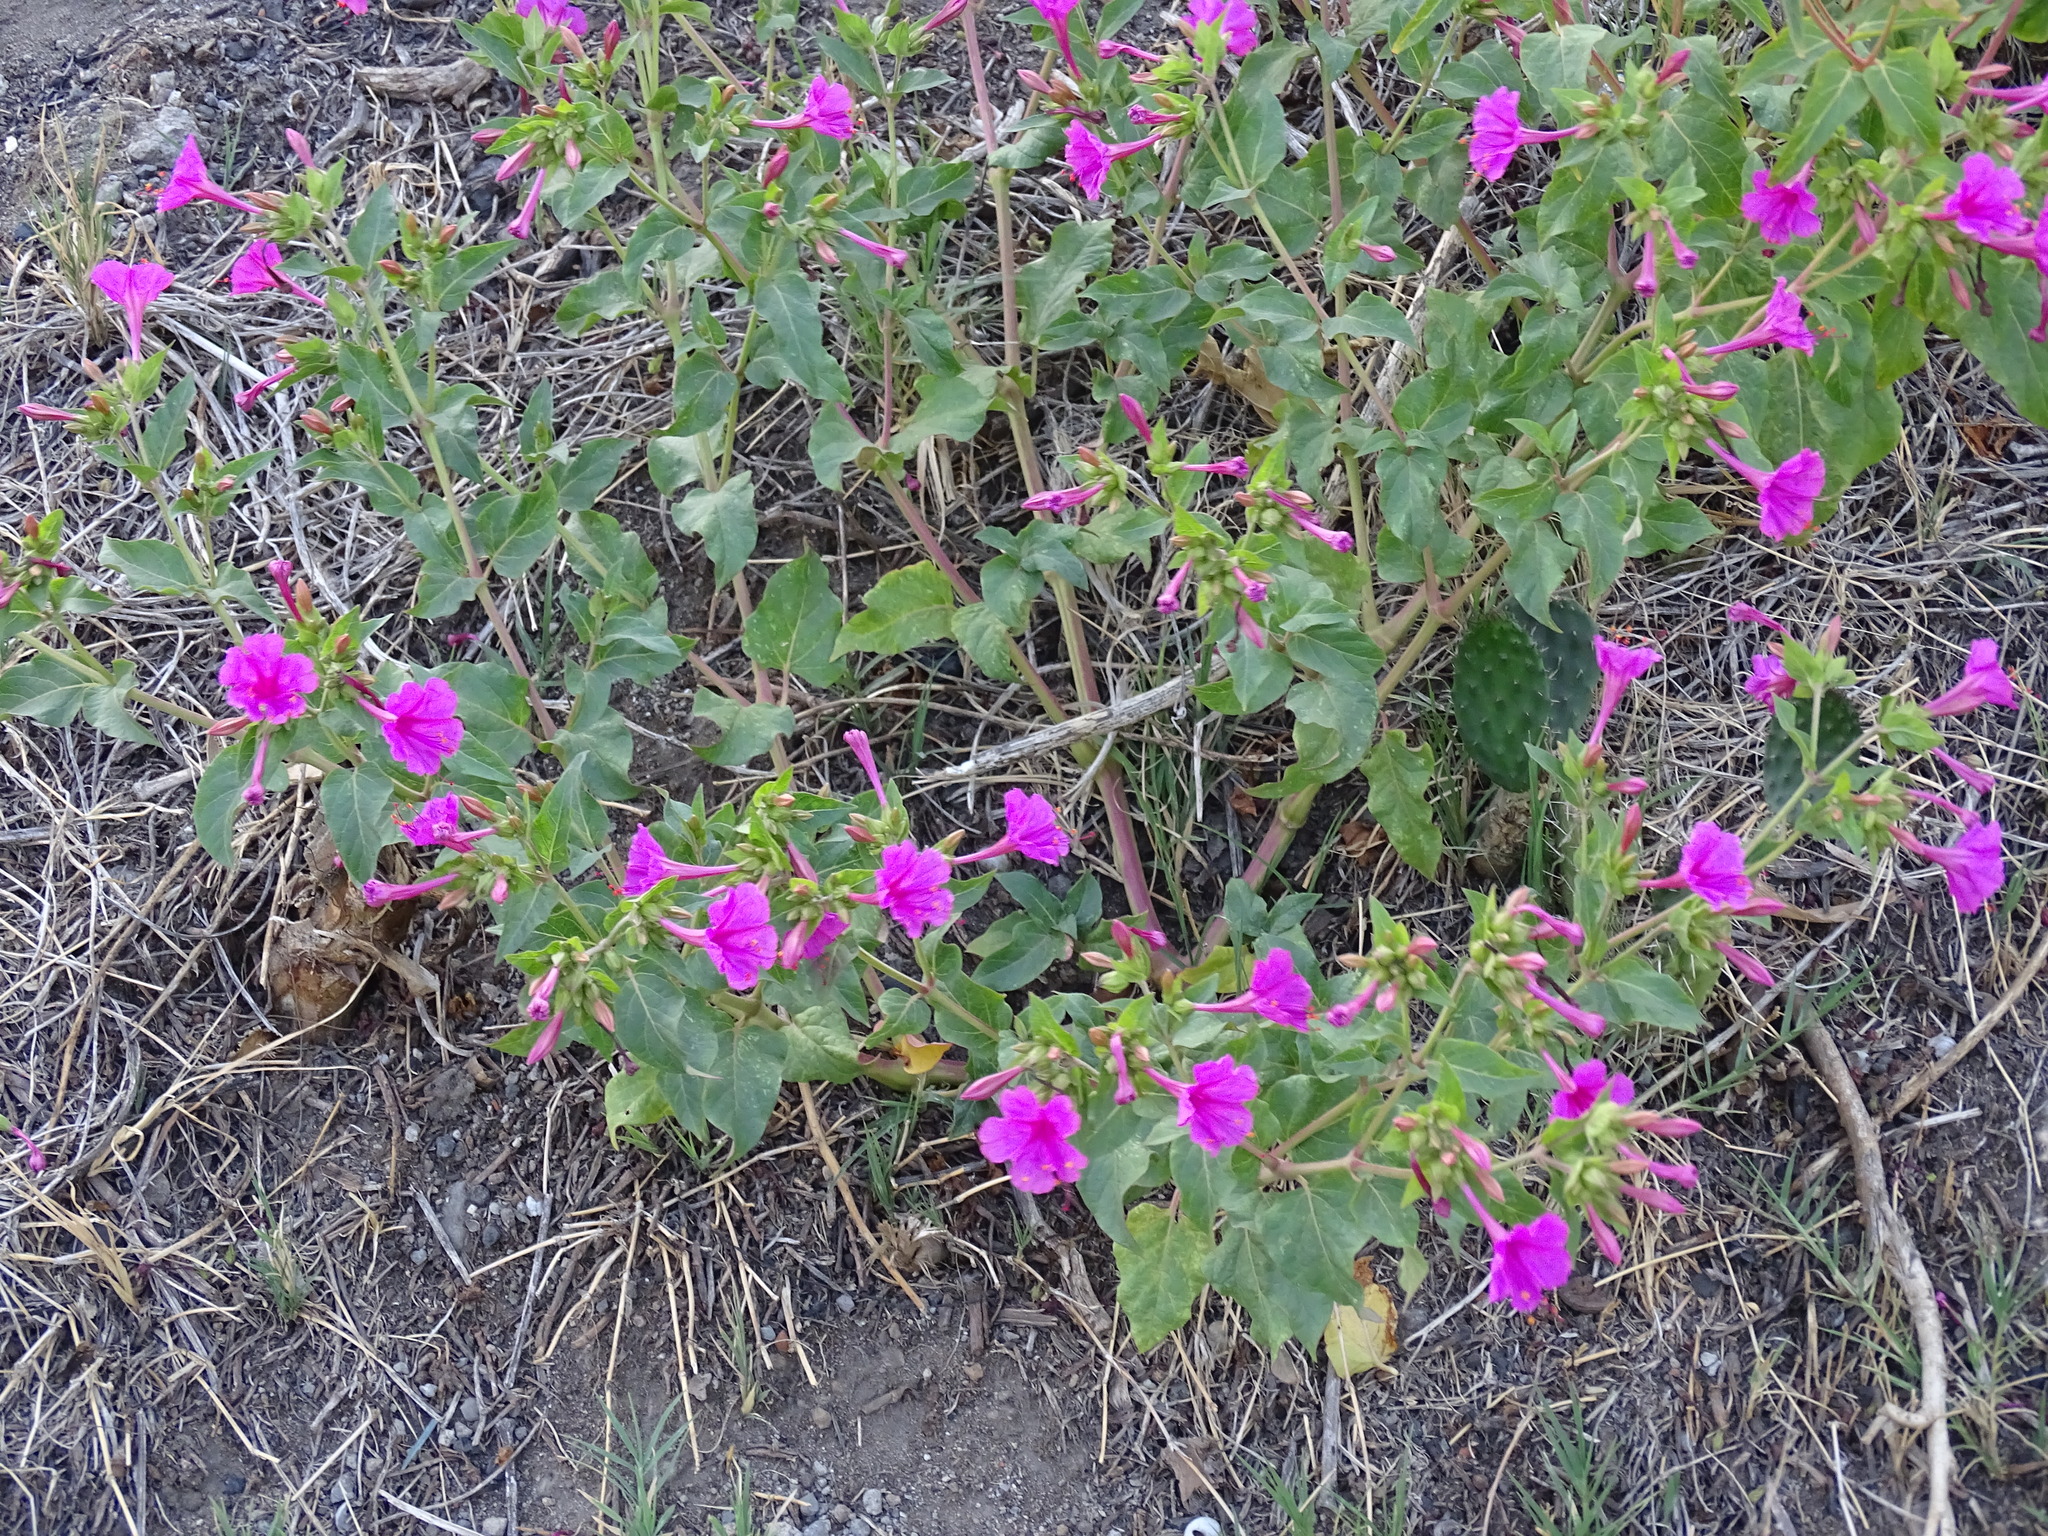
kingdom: Plantae
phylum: Tracheophyta
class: Magnoliopsida
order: Caryophyllales
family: Nyctaginaceae
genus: Mirabilis
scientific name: Mirabilis jalapa
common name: Marvel-of-peru
